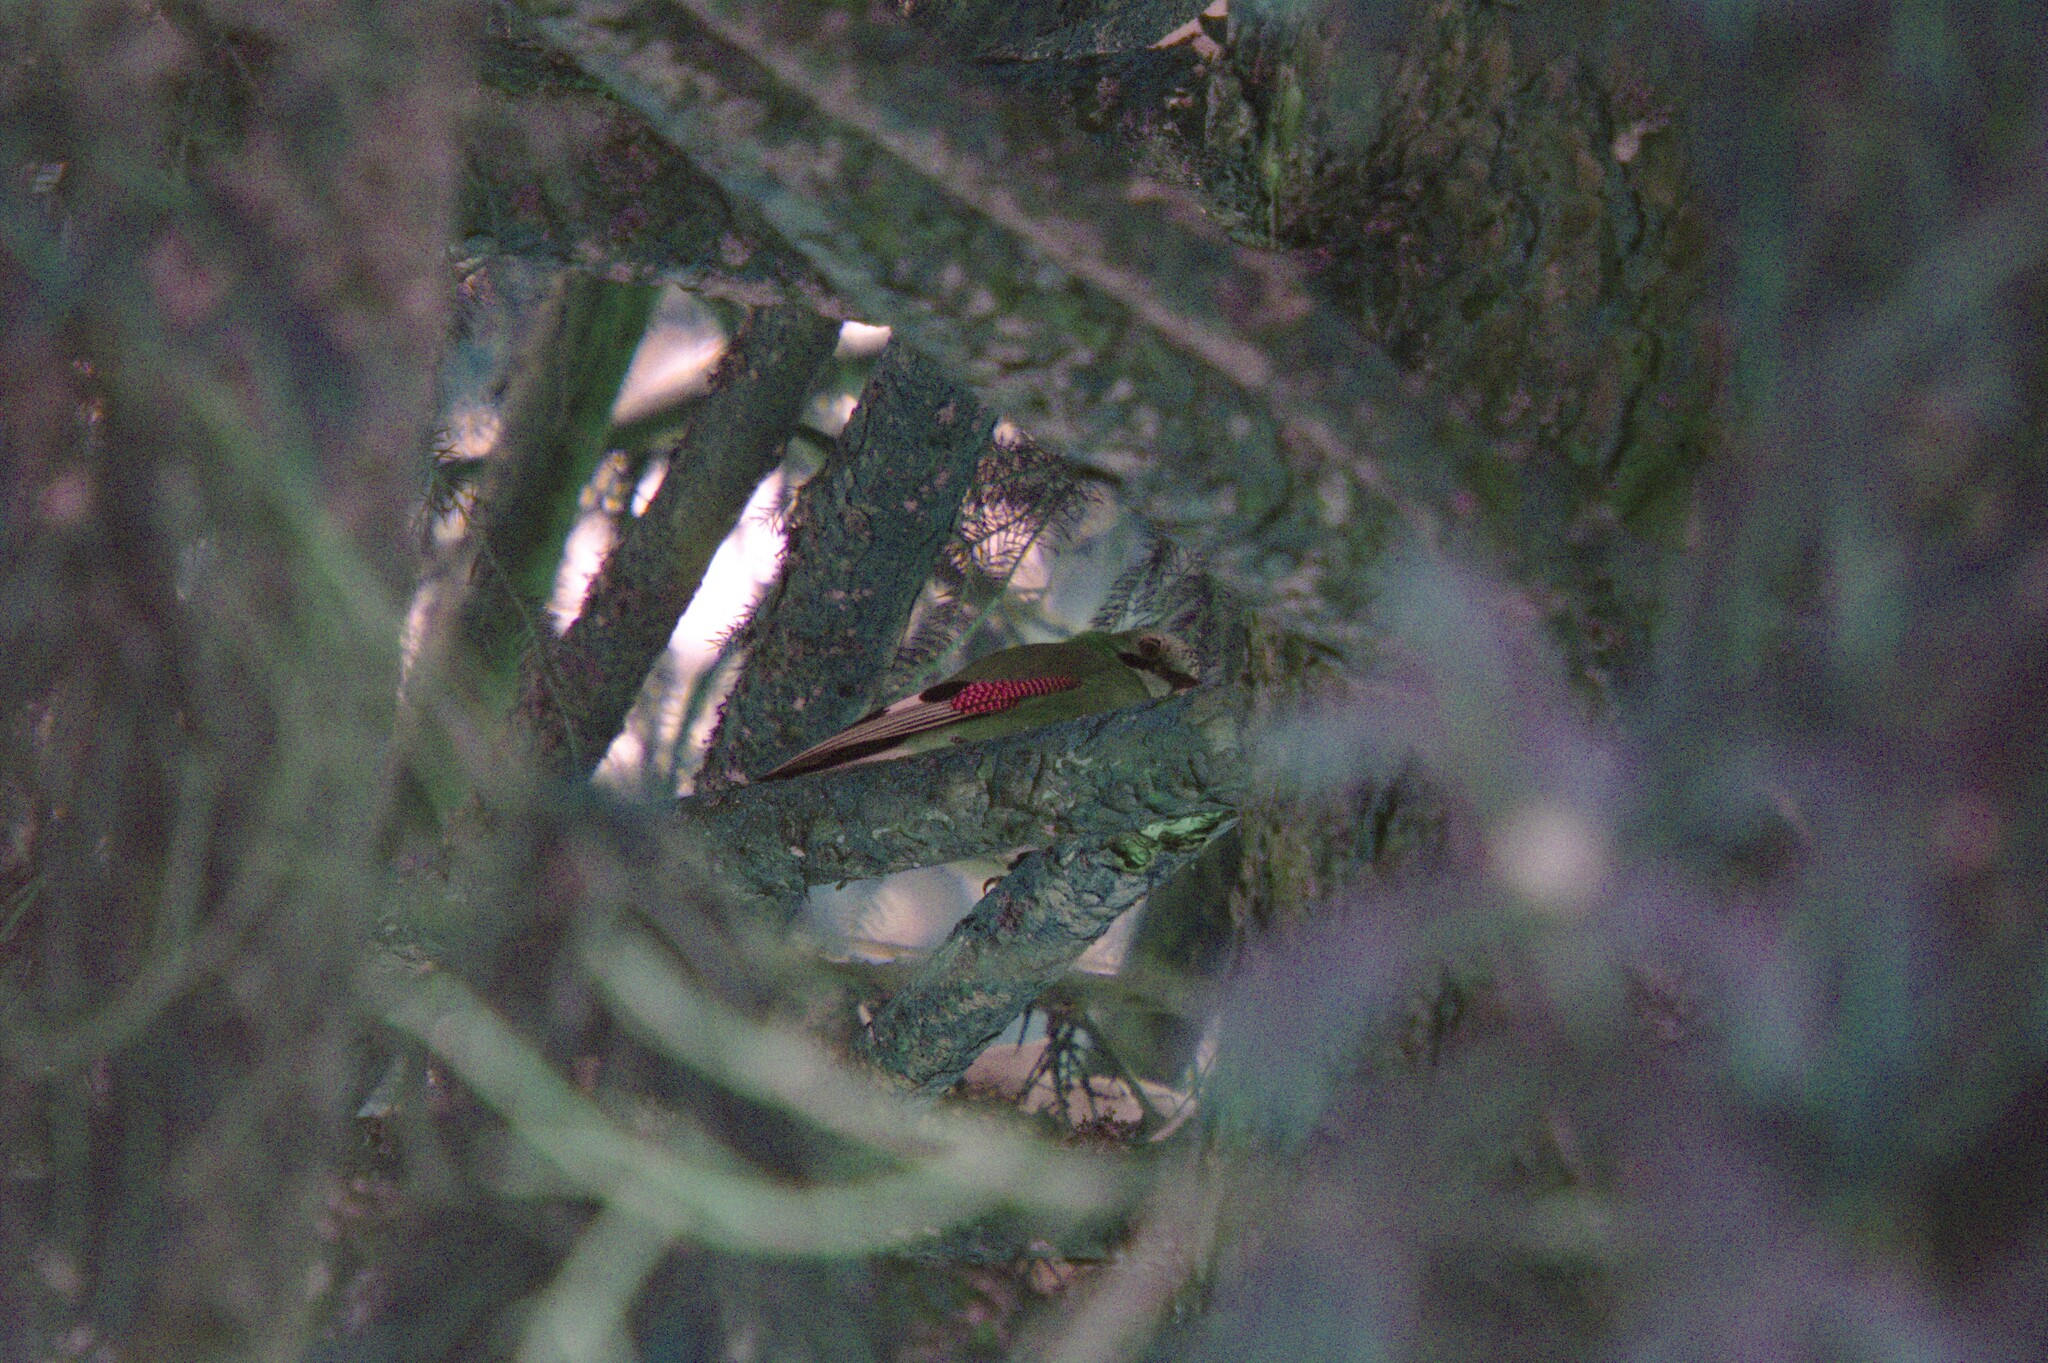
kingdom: Animalia
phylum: Chordata
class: Aves
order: Passeriformes
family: Corvidae
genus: Garrulus
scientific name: Garrulus glandarius
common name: Eurasian jay
